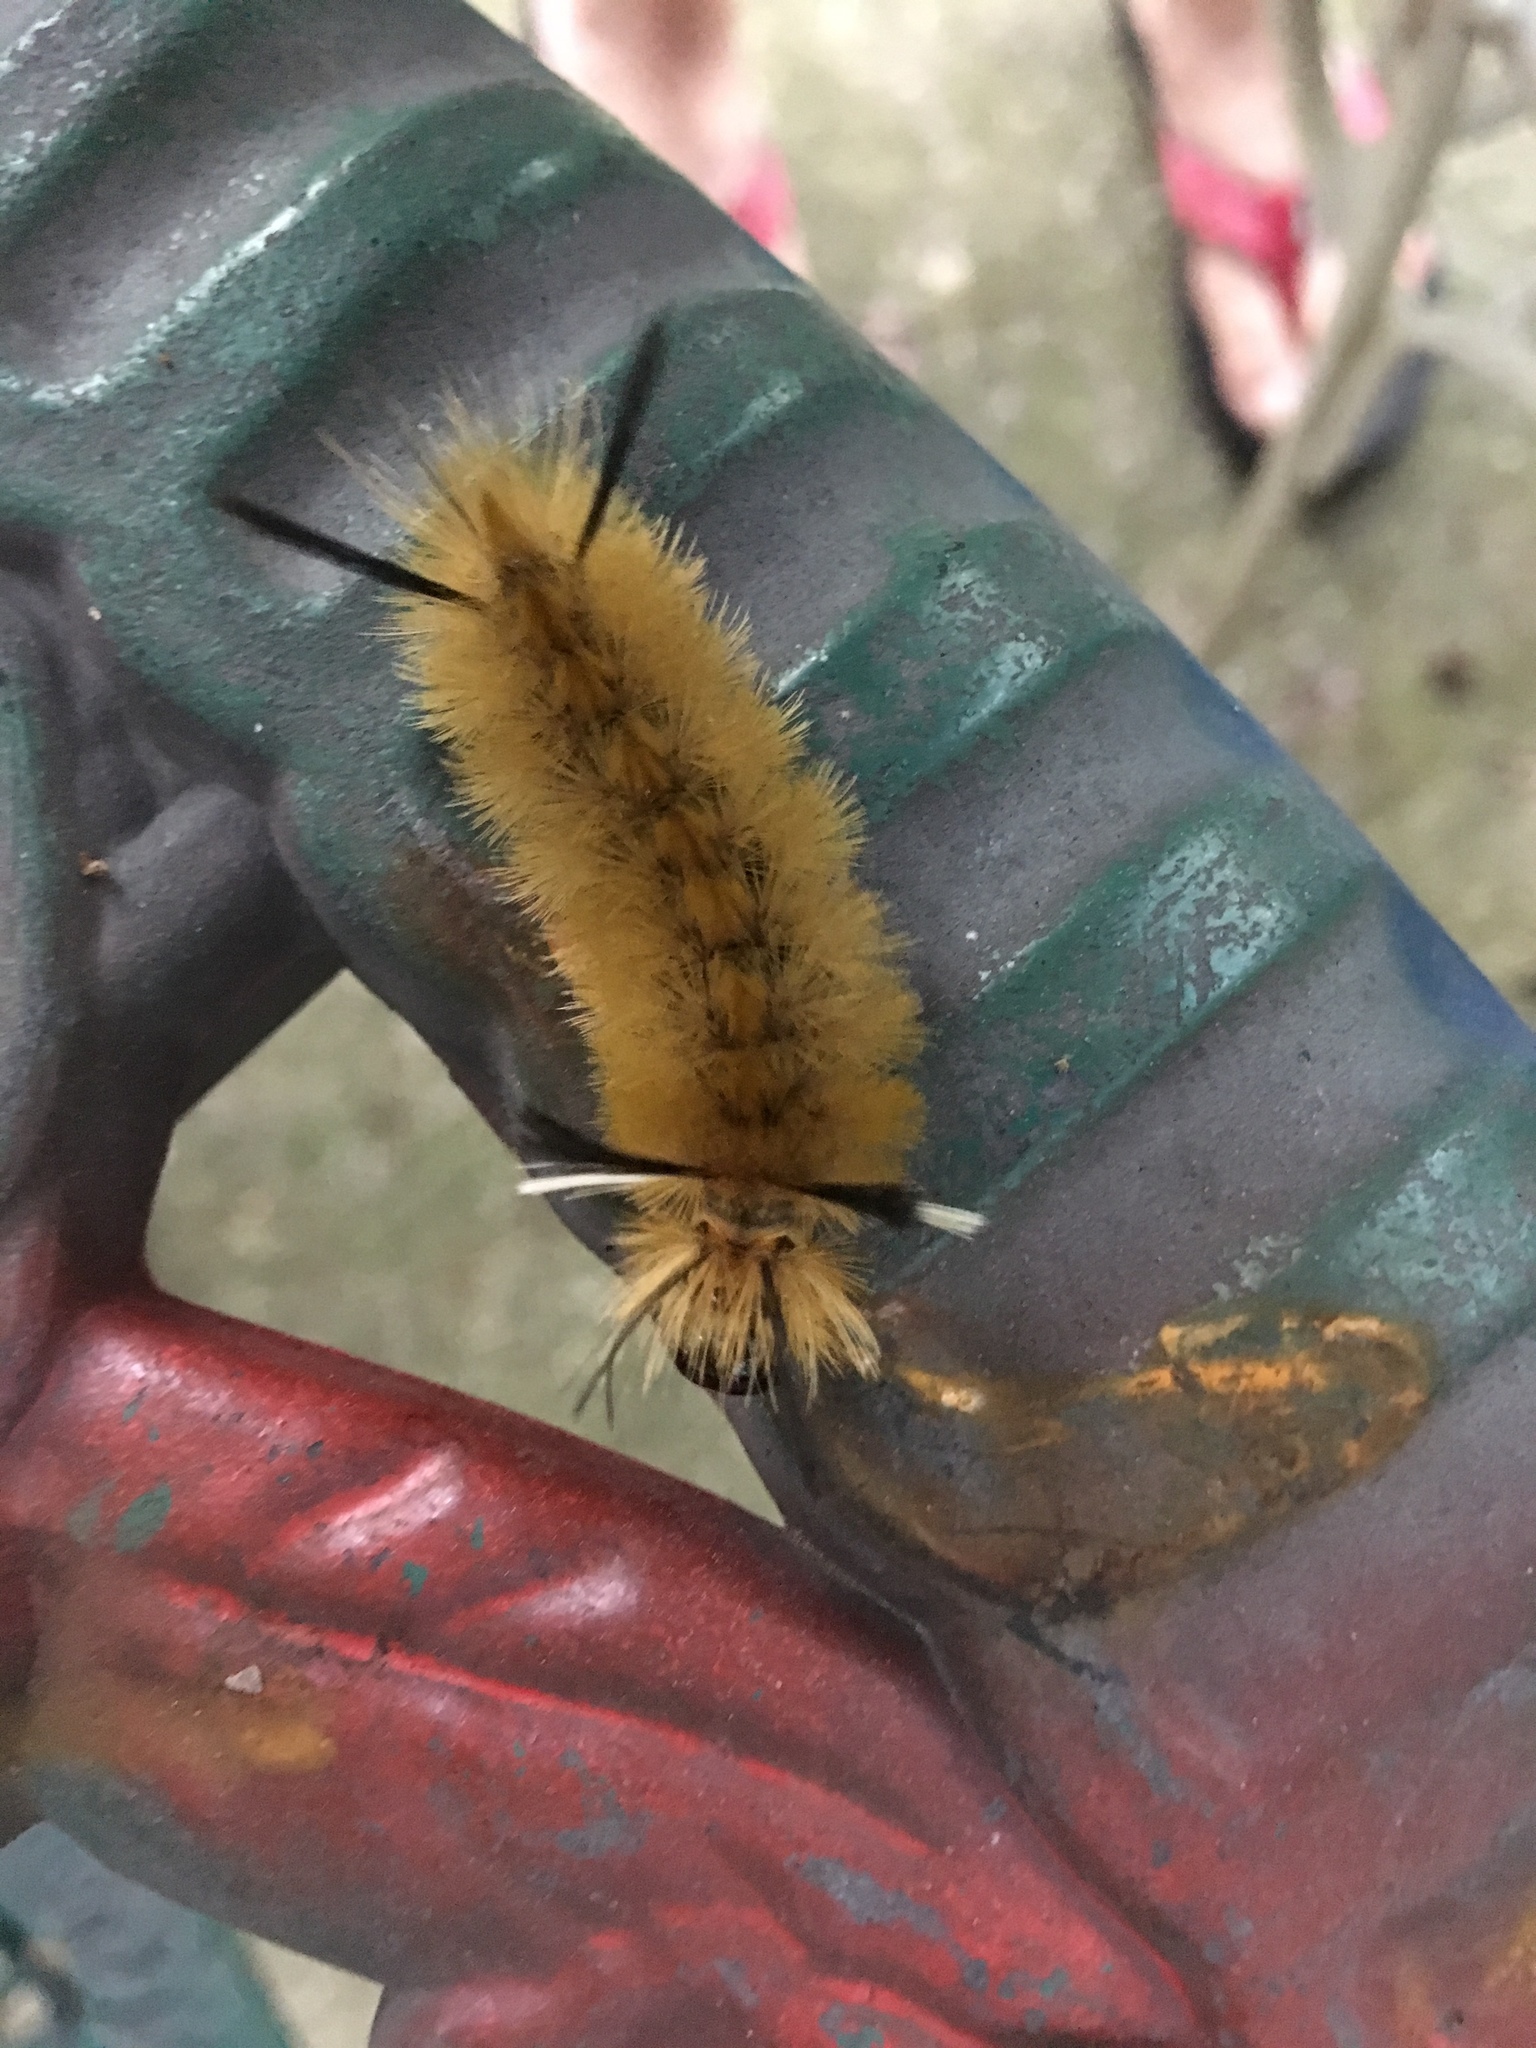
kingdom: Animalia
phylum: Arthropoda
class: Insecta
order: Lepidoptera
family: Erebidae
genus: Halysidota
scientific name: Halysidota tessellaris
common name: Banded tussock moth
